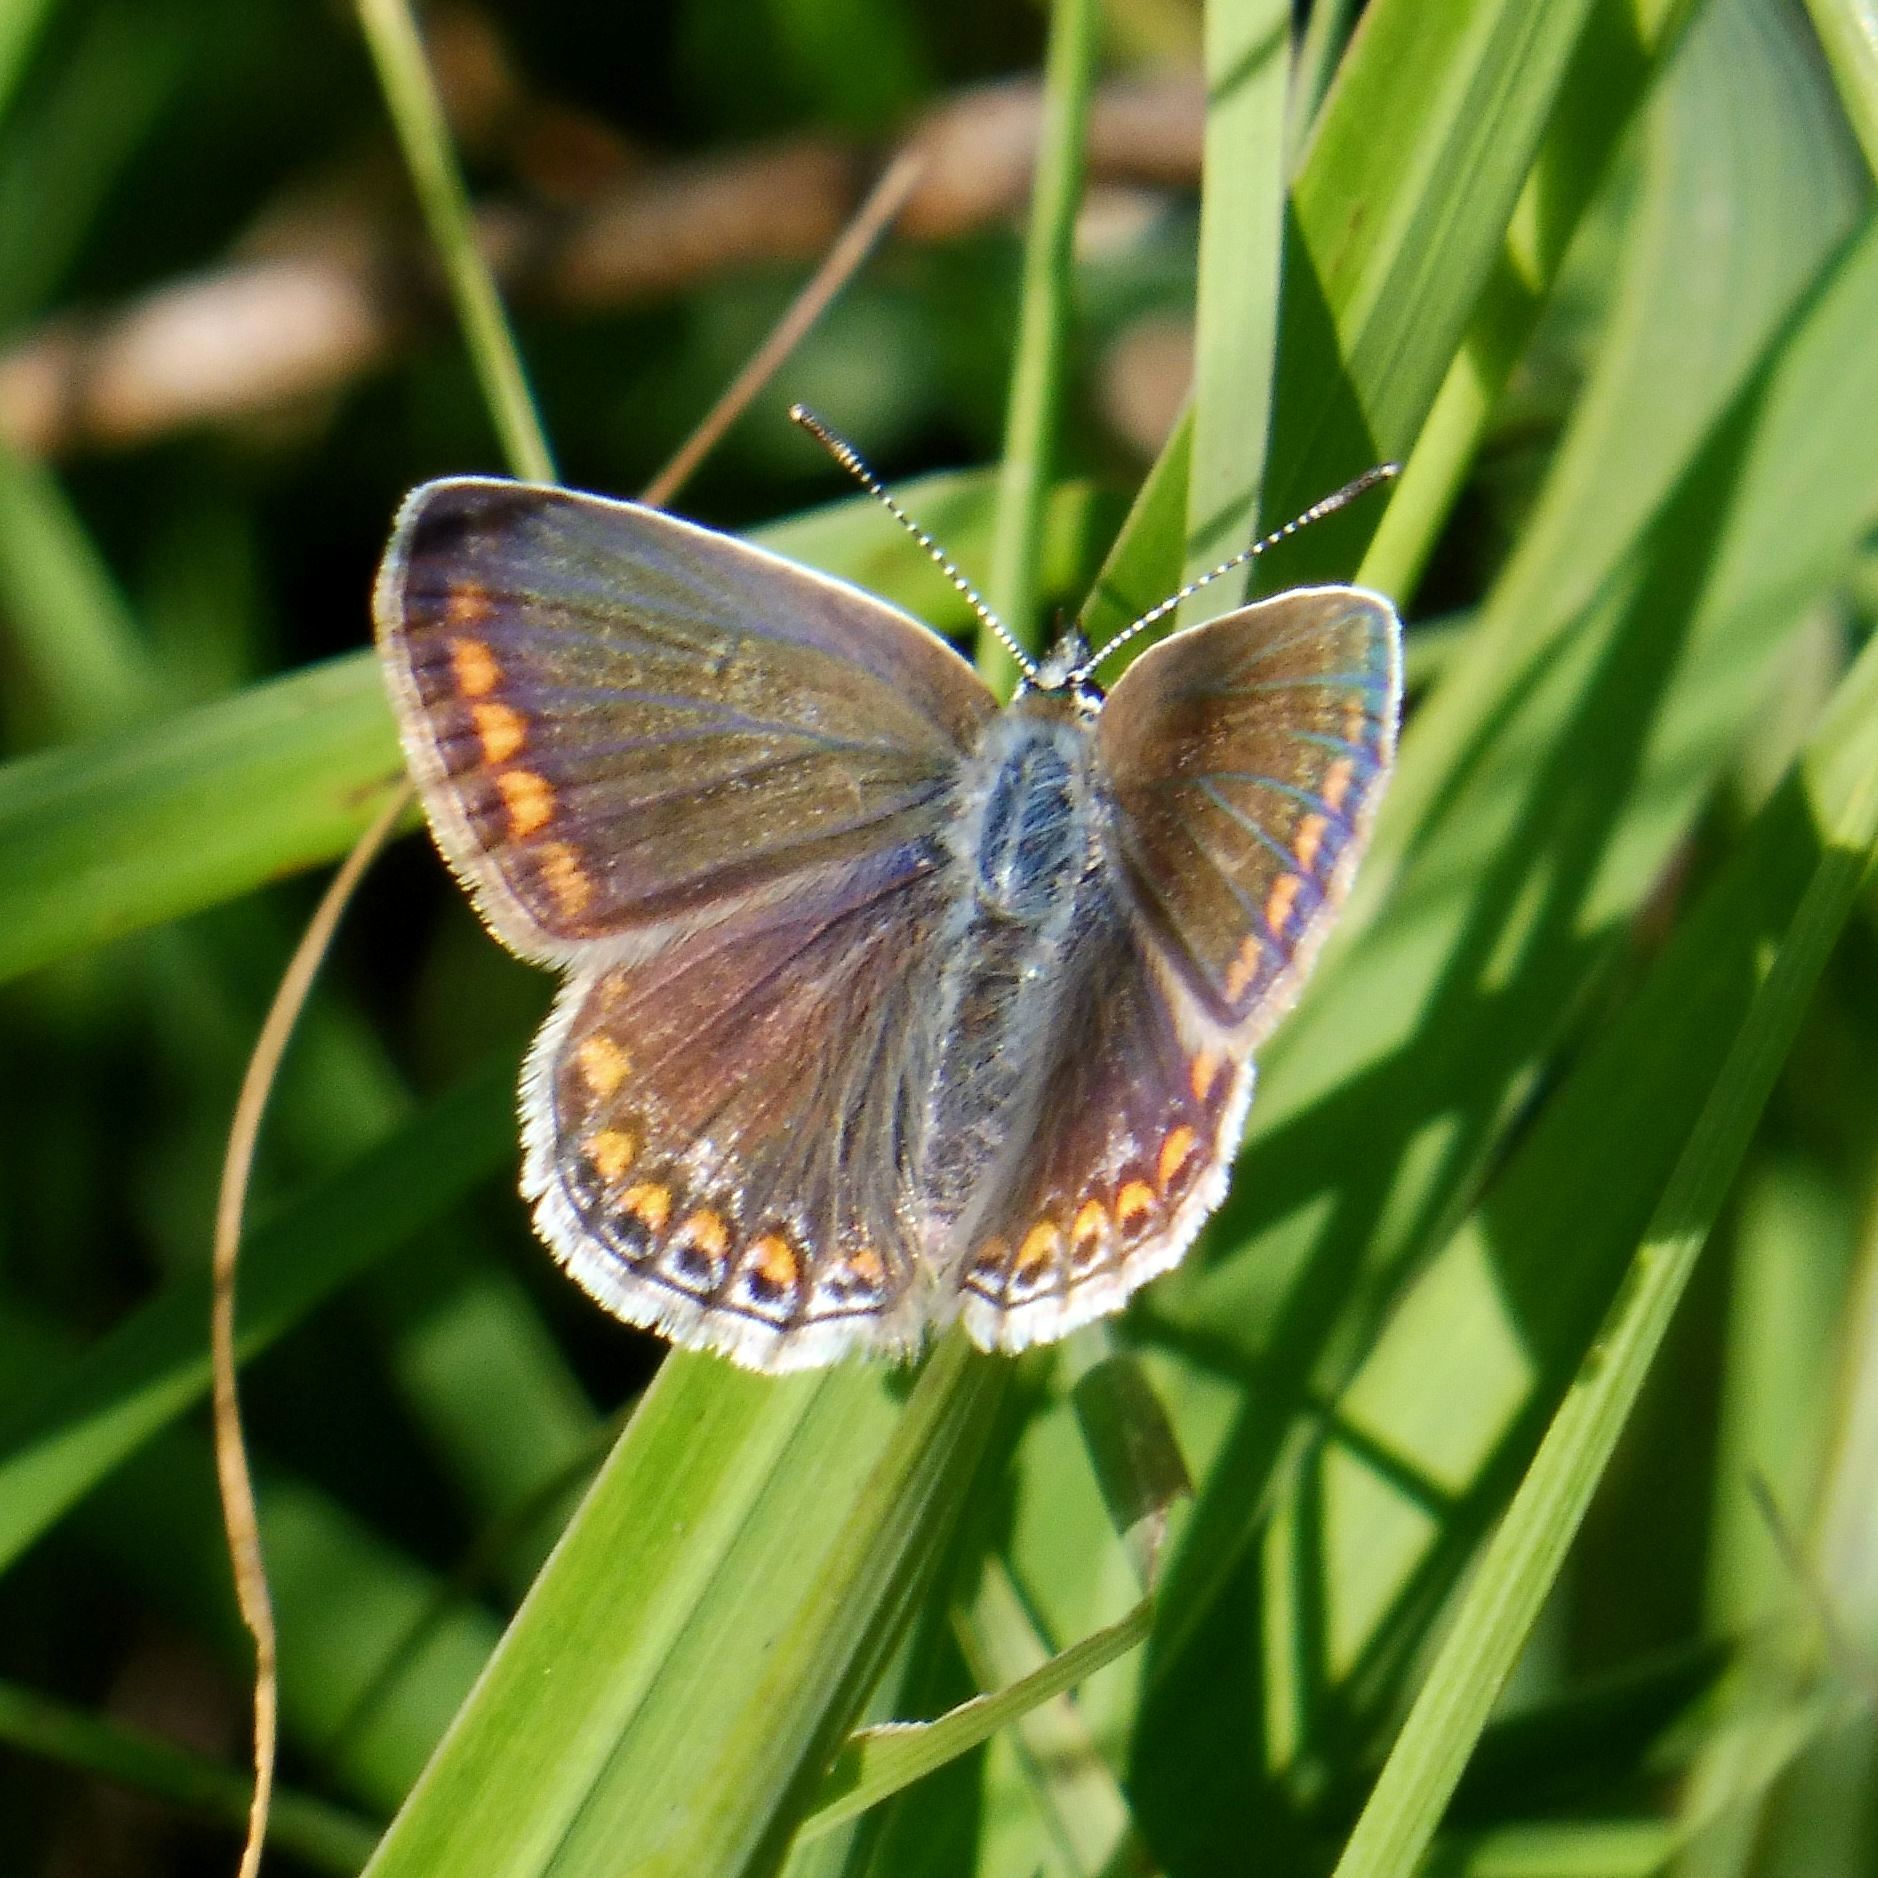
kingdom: Animalia
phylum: Arthropoda
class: Insecta
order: Lepidoptera
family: Lycaenidae
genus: Polyommatus
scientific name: Polyommatus icarus
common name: Common blue
